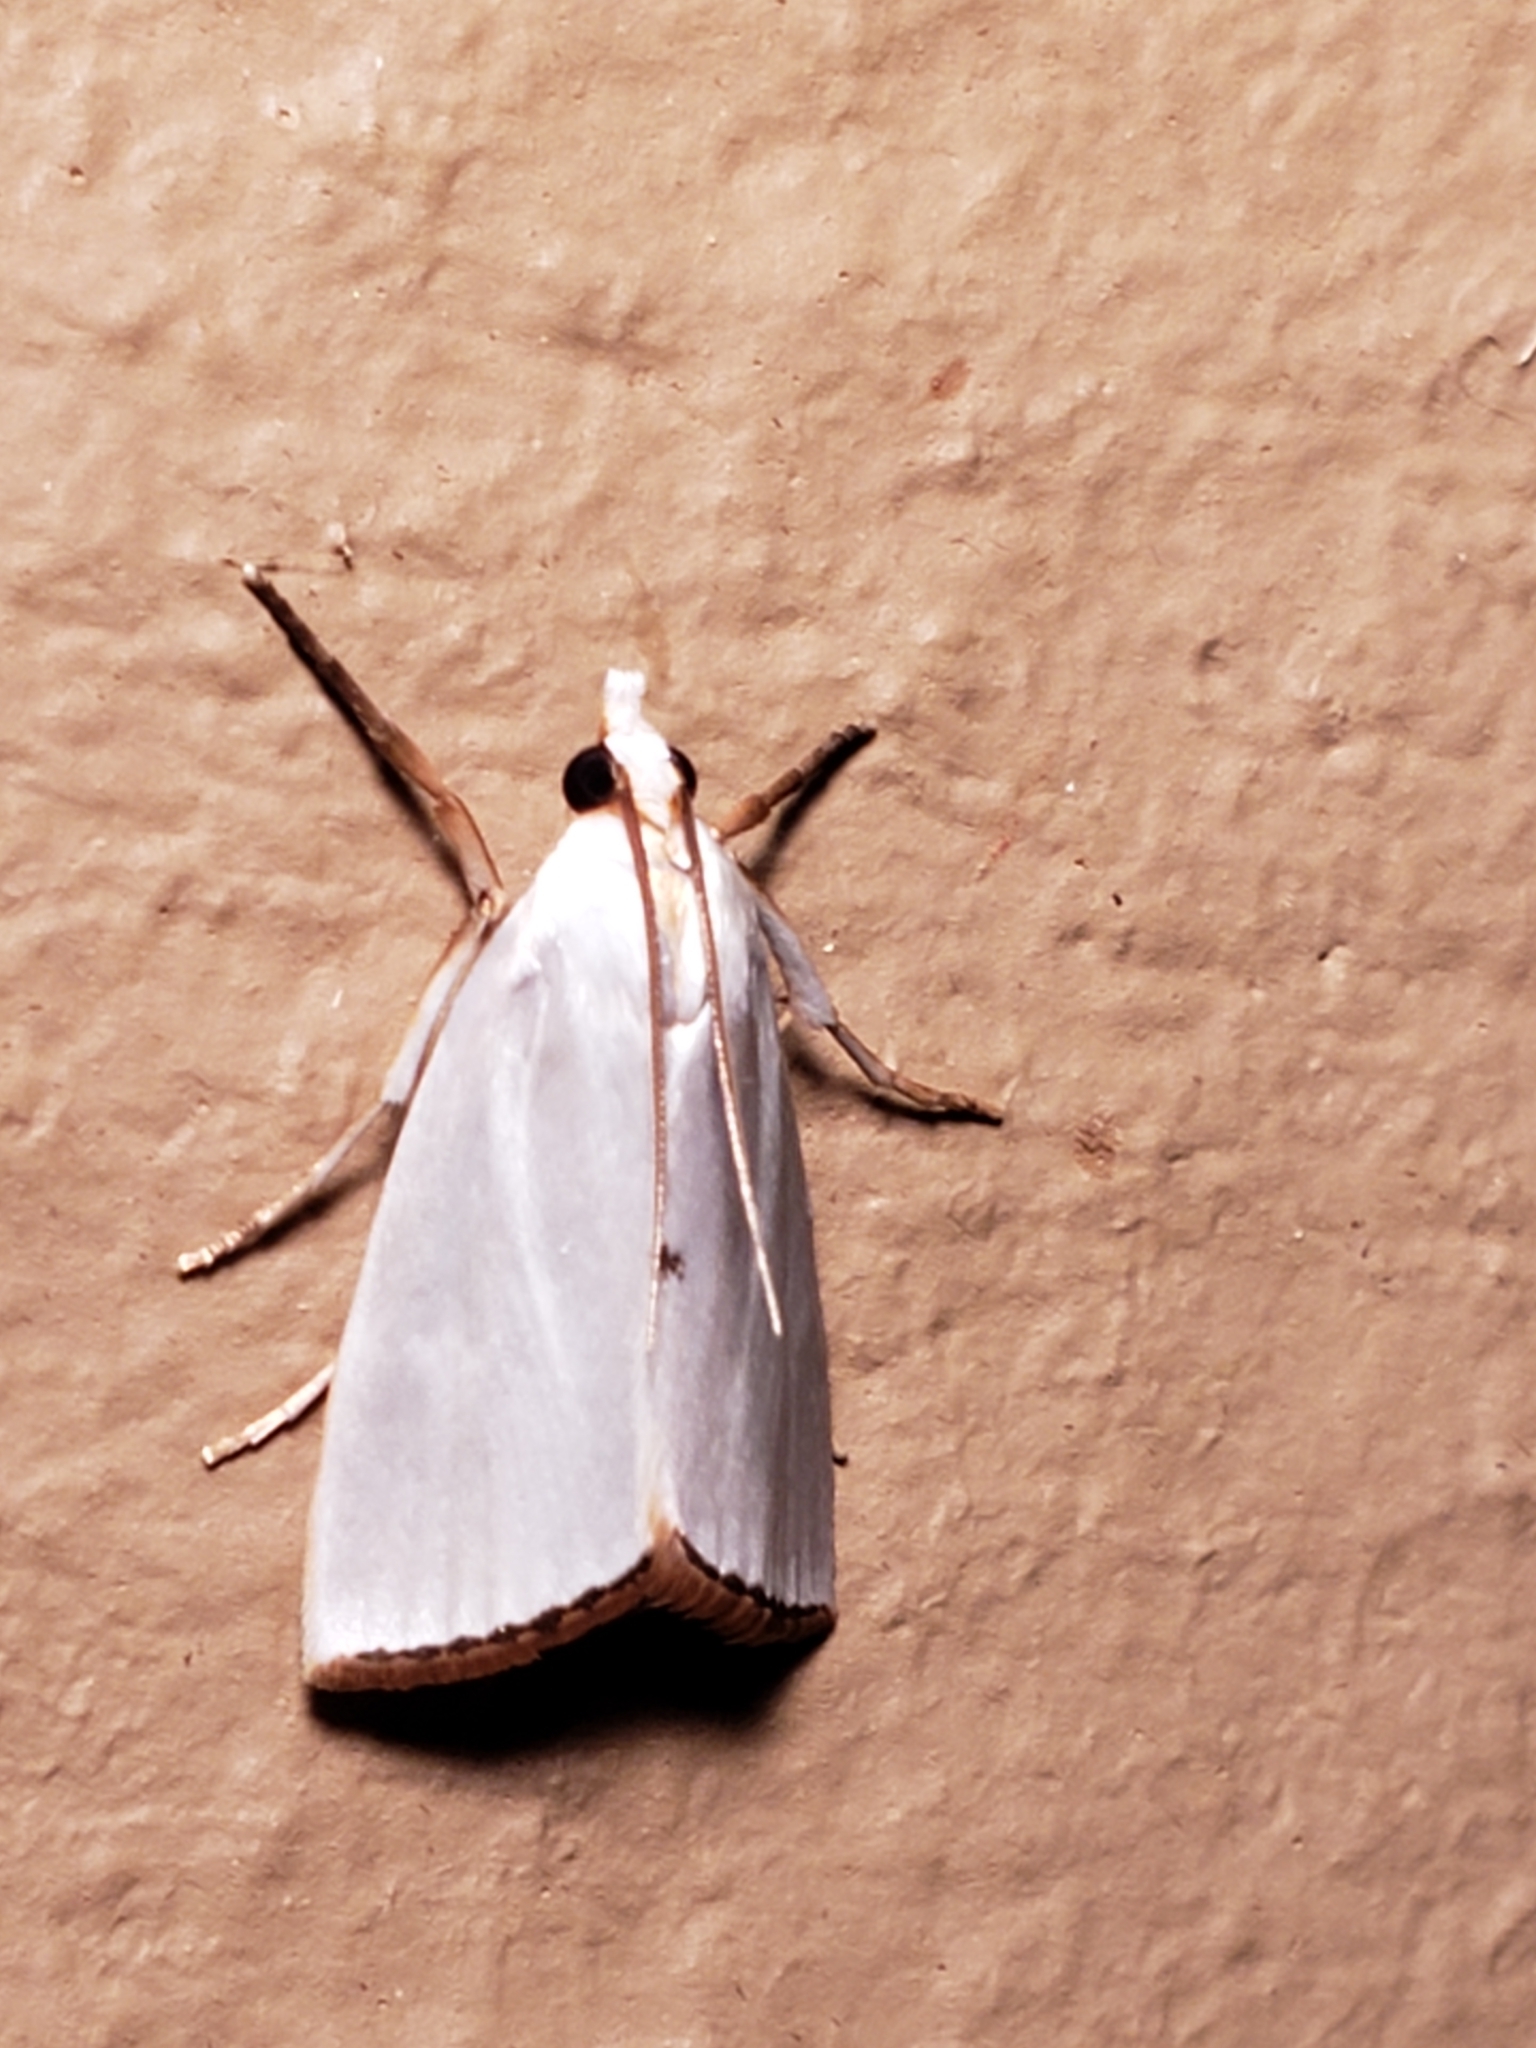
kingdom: Animalia
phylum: Arthropoda
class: Insecta
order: Lepidoptera
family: Crambidae
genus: Argyria
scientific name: Argyria nivalis
